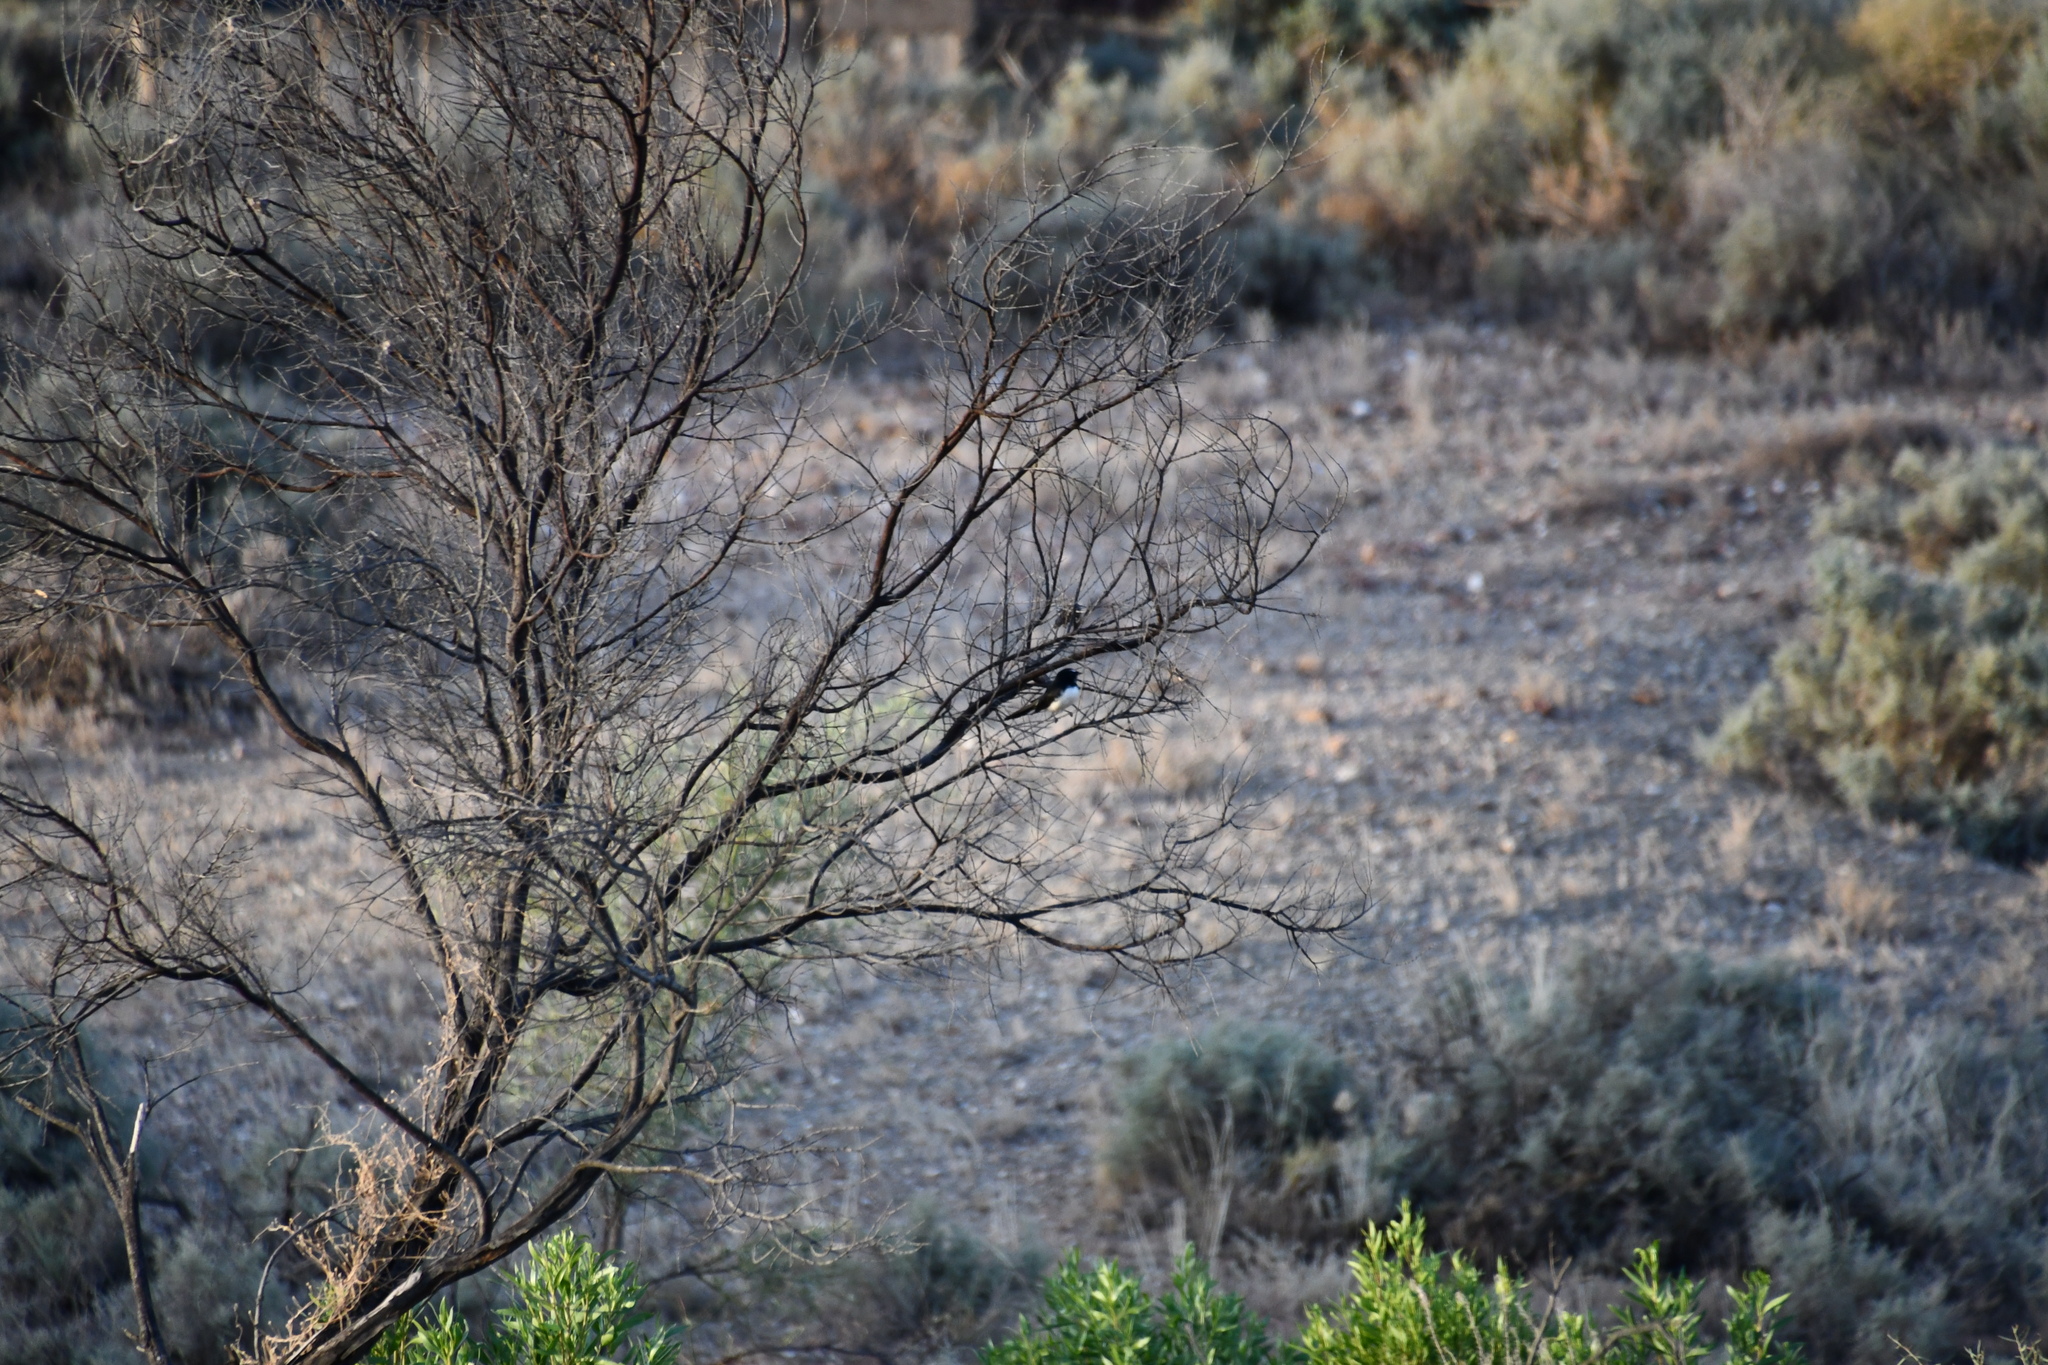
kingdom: Animalia
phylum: Chordata
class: Aves
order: Passeriformes
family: Rhipiduridae
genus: Rhipidura
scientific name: Rhipidura leucophrys
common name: Willie wagtail
